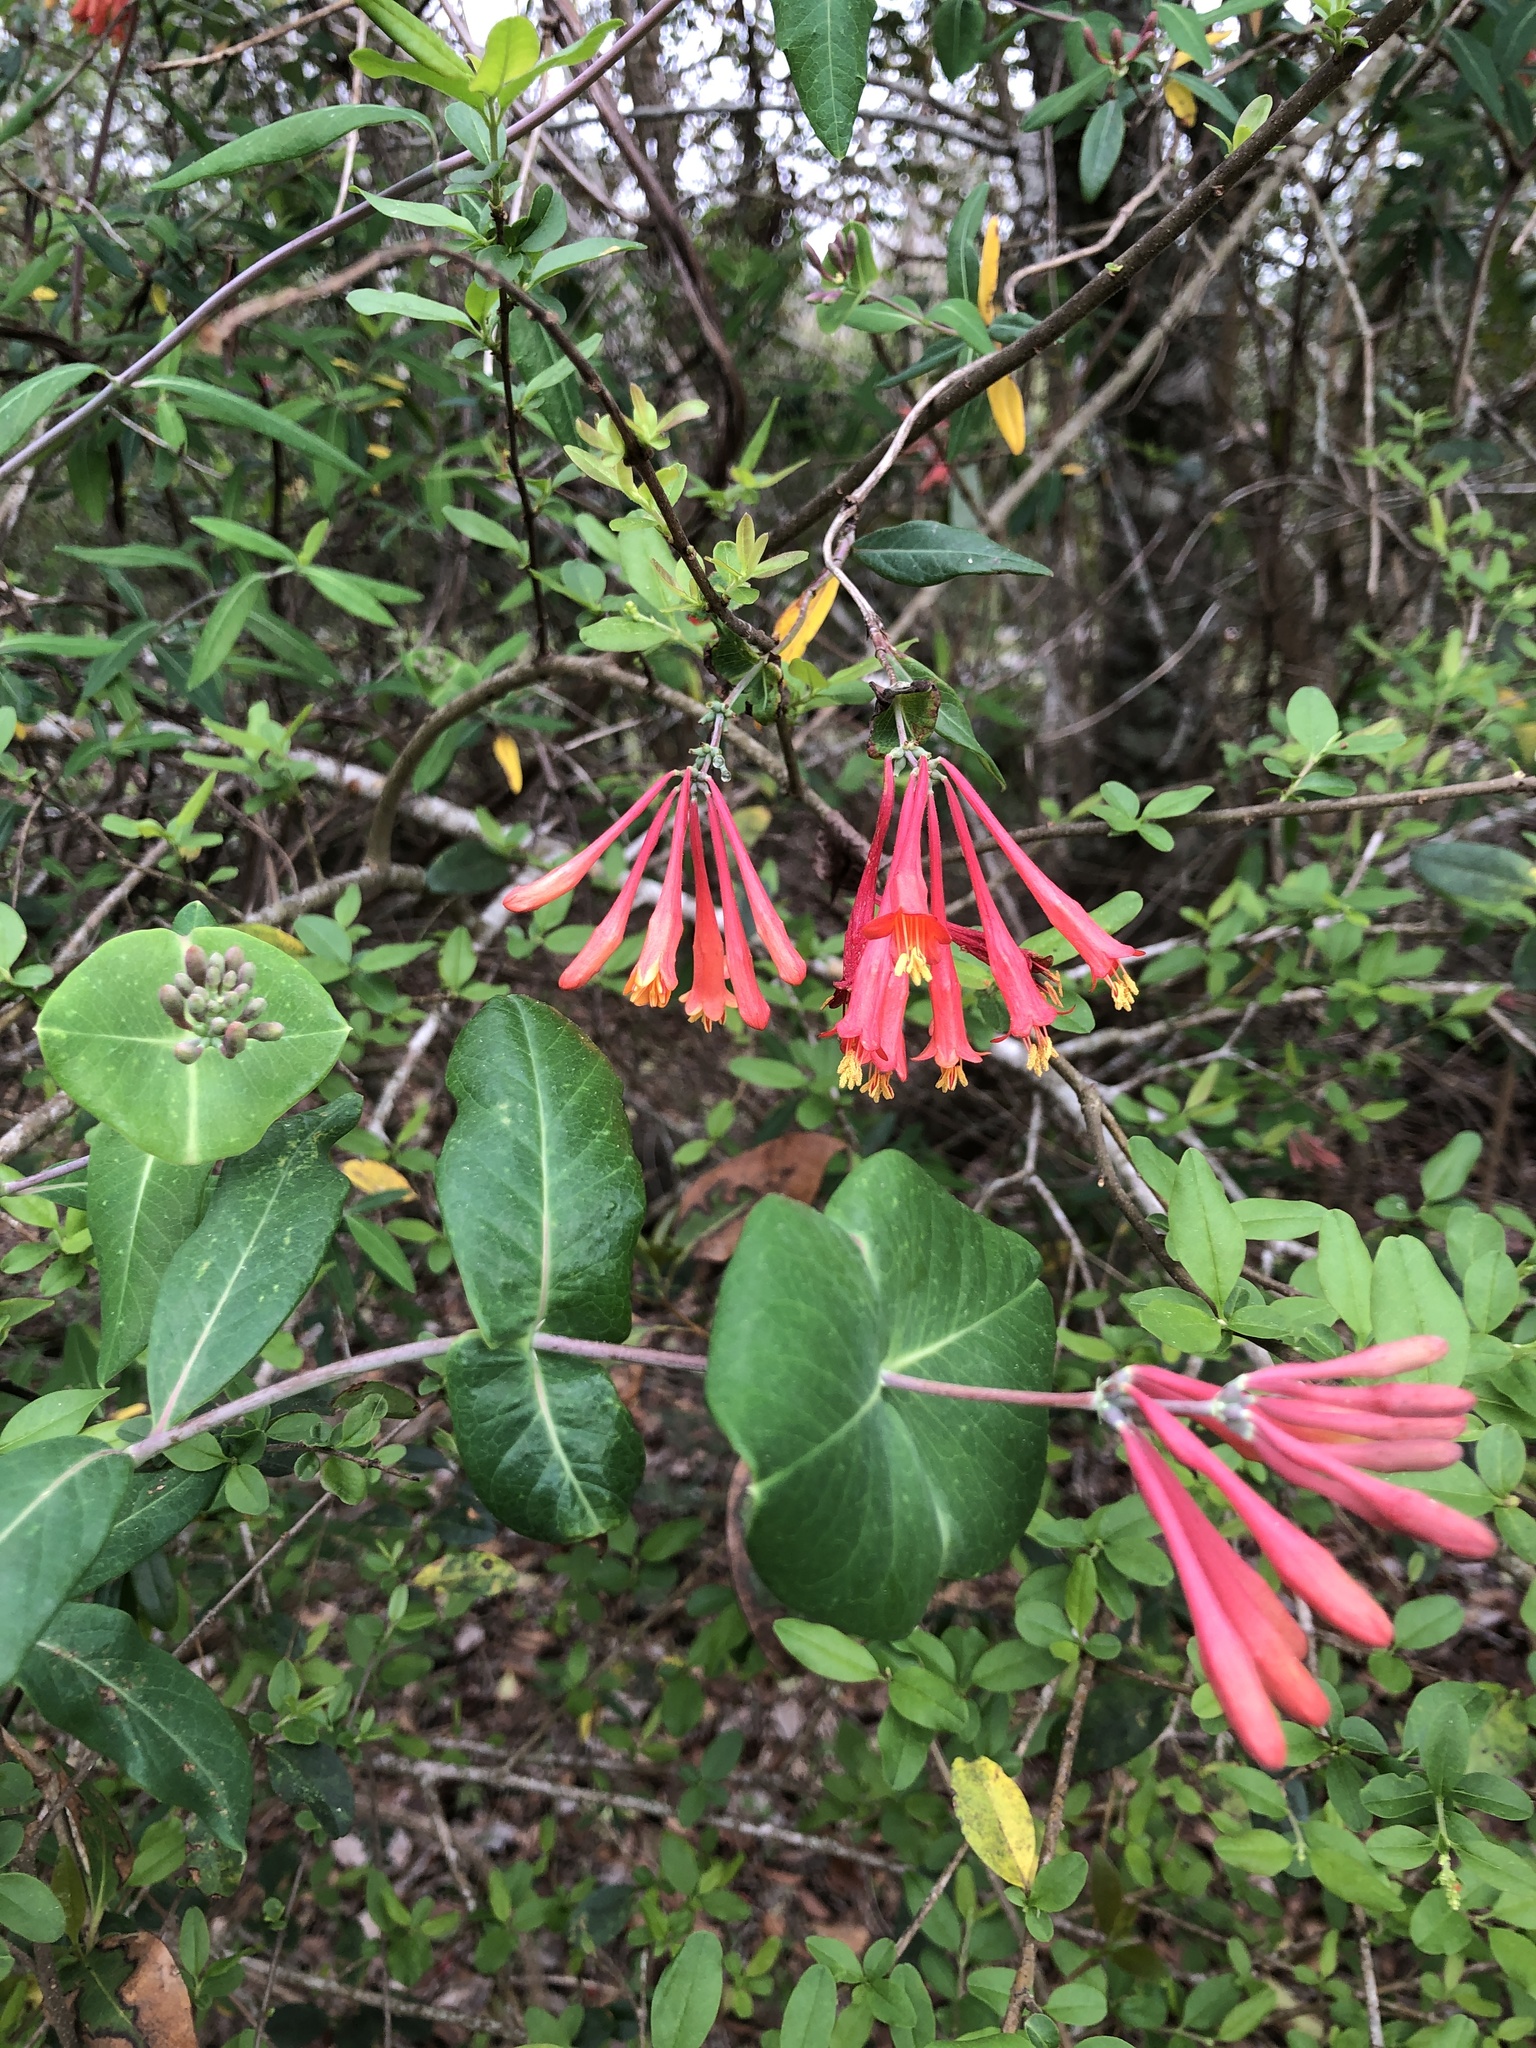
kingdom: Plantae
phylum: Tracheophyta
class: Magnoliopsida
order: Dipsacales
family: Caprifoliaceae
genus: Lonicera
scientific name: Lonicera sempervirens
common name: Coral honeysuckle
